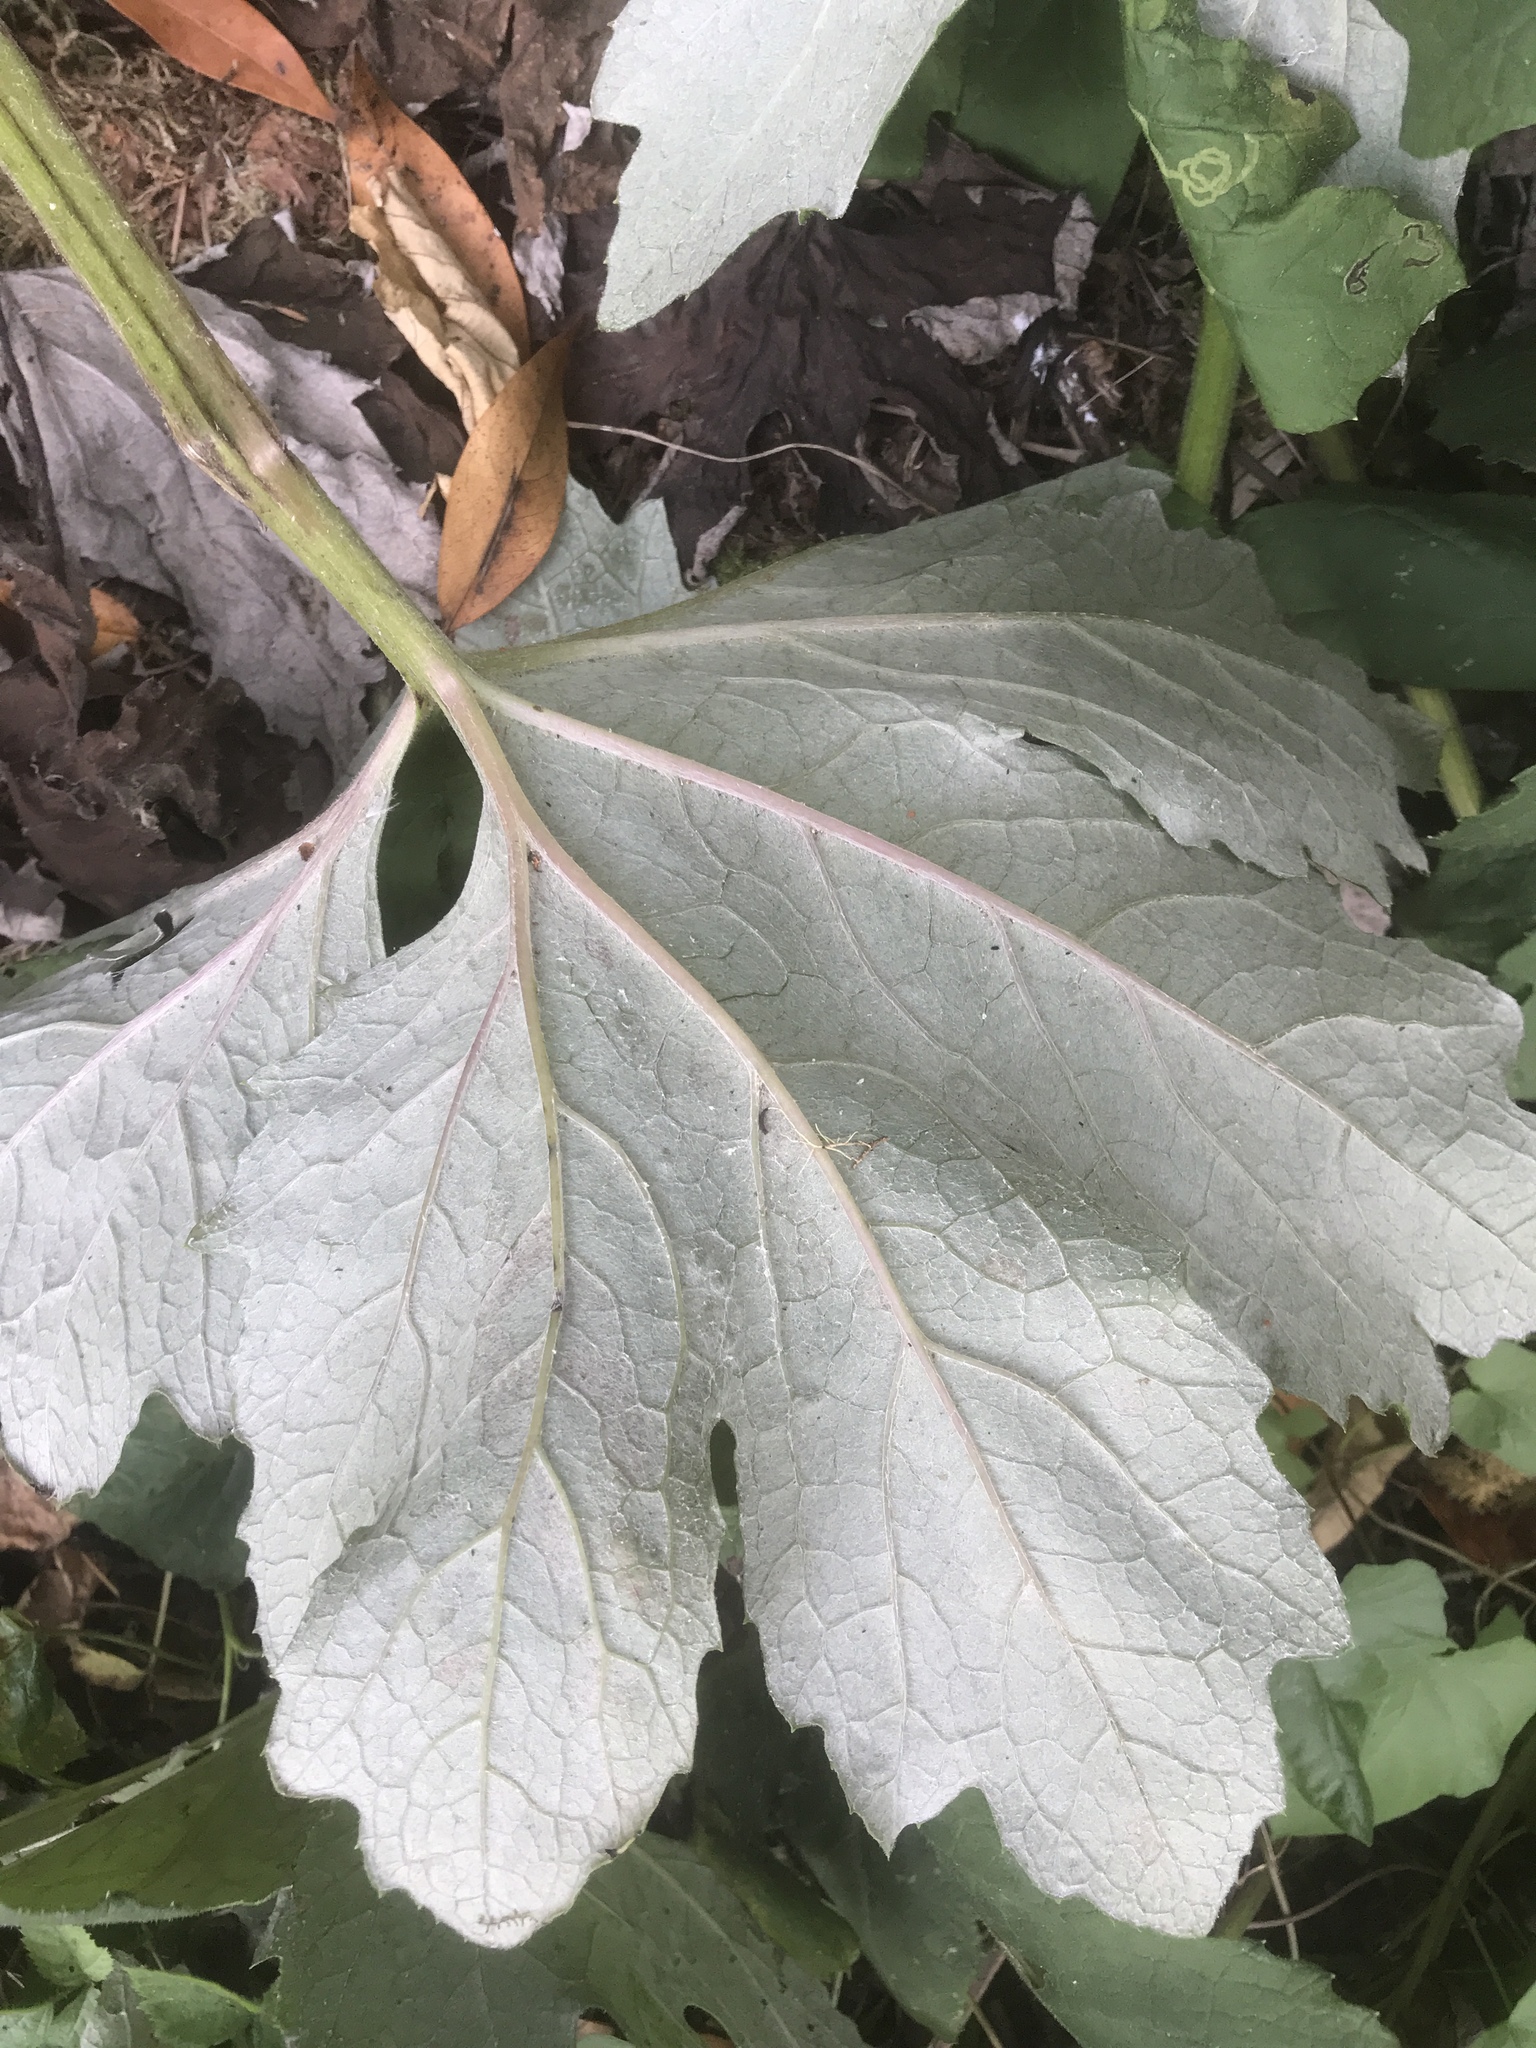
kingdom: Plantae
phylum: Tracheophyta
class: Magnoliopsida
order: Asterales
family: Asteraceae
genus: Petasites
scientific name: Petasites frigidus
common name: Arctic butterbur
